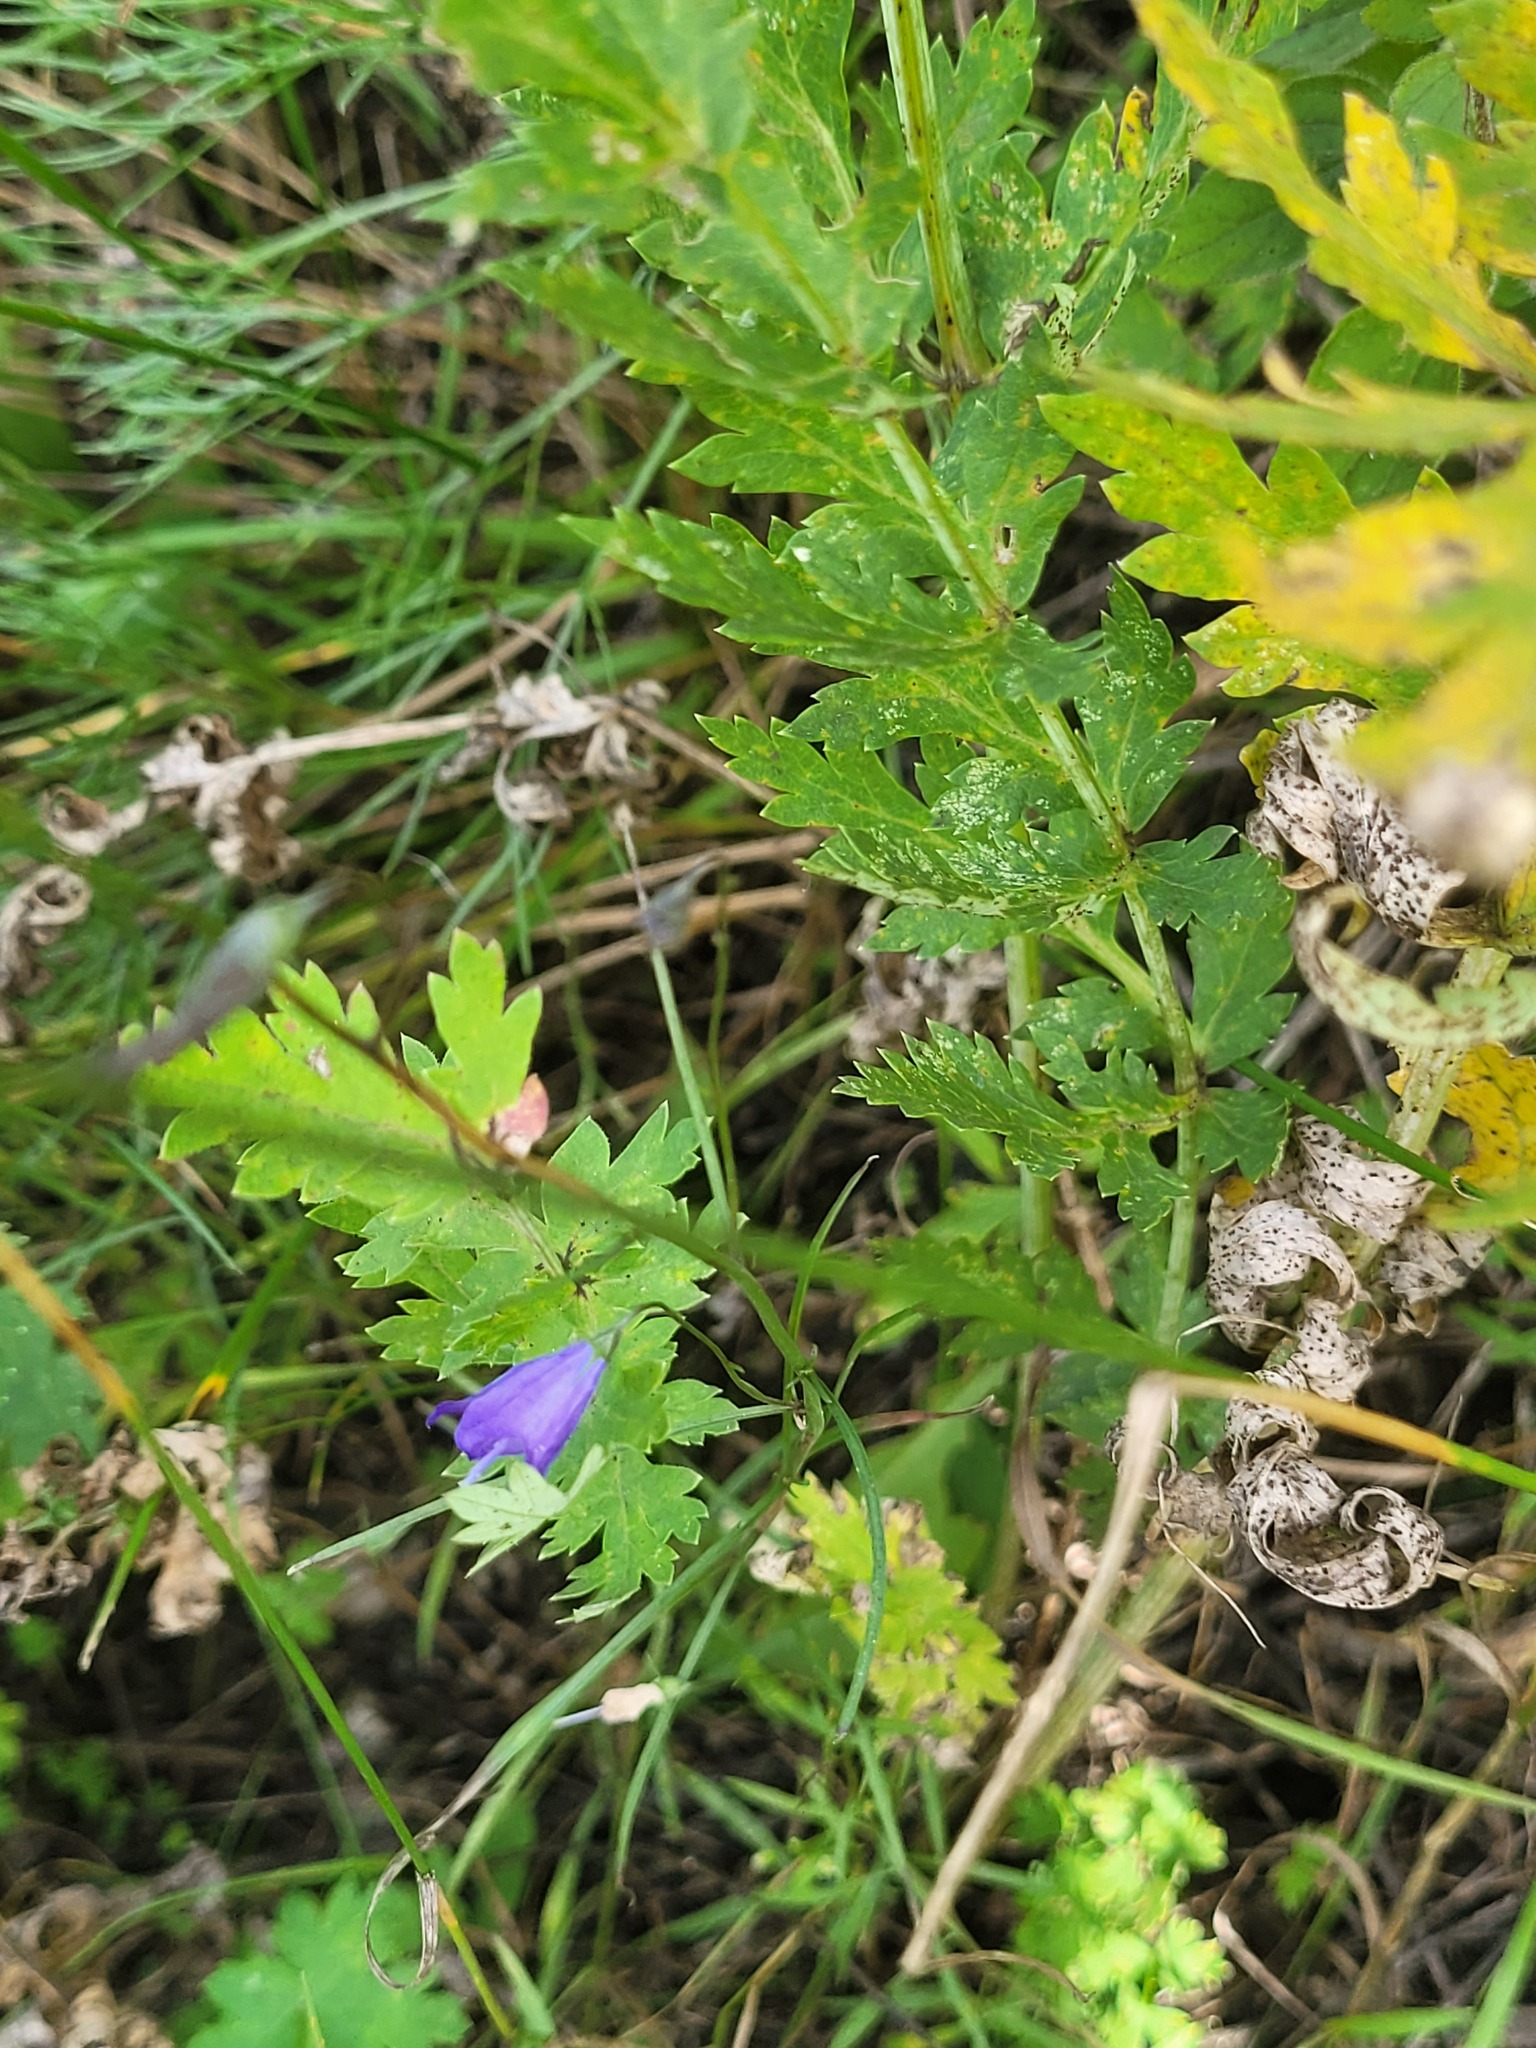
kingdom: Plantae
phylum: Tracheophyta
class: Magnoliopsida
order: Asterales
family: Campanulaceae
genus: Campanula
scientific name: Campanula rotundifolia
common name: Harebell
